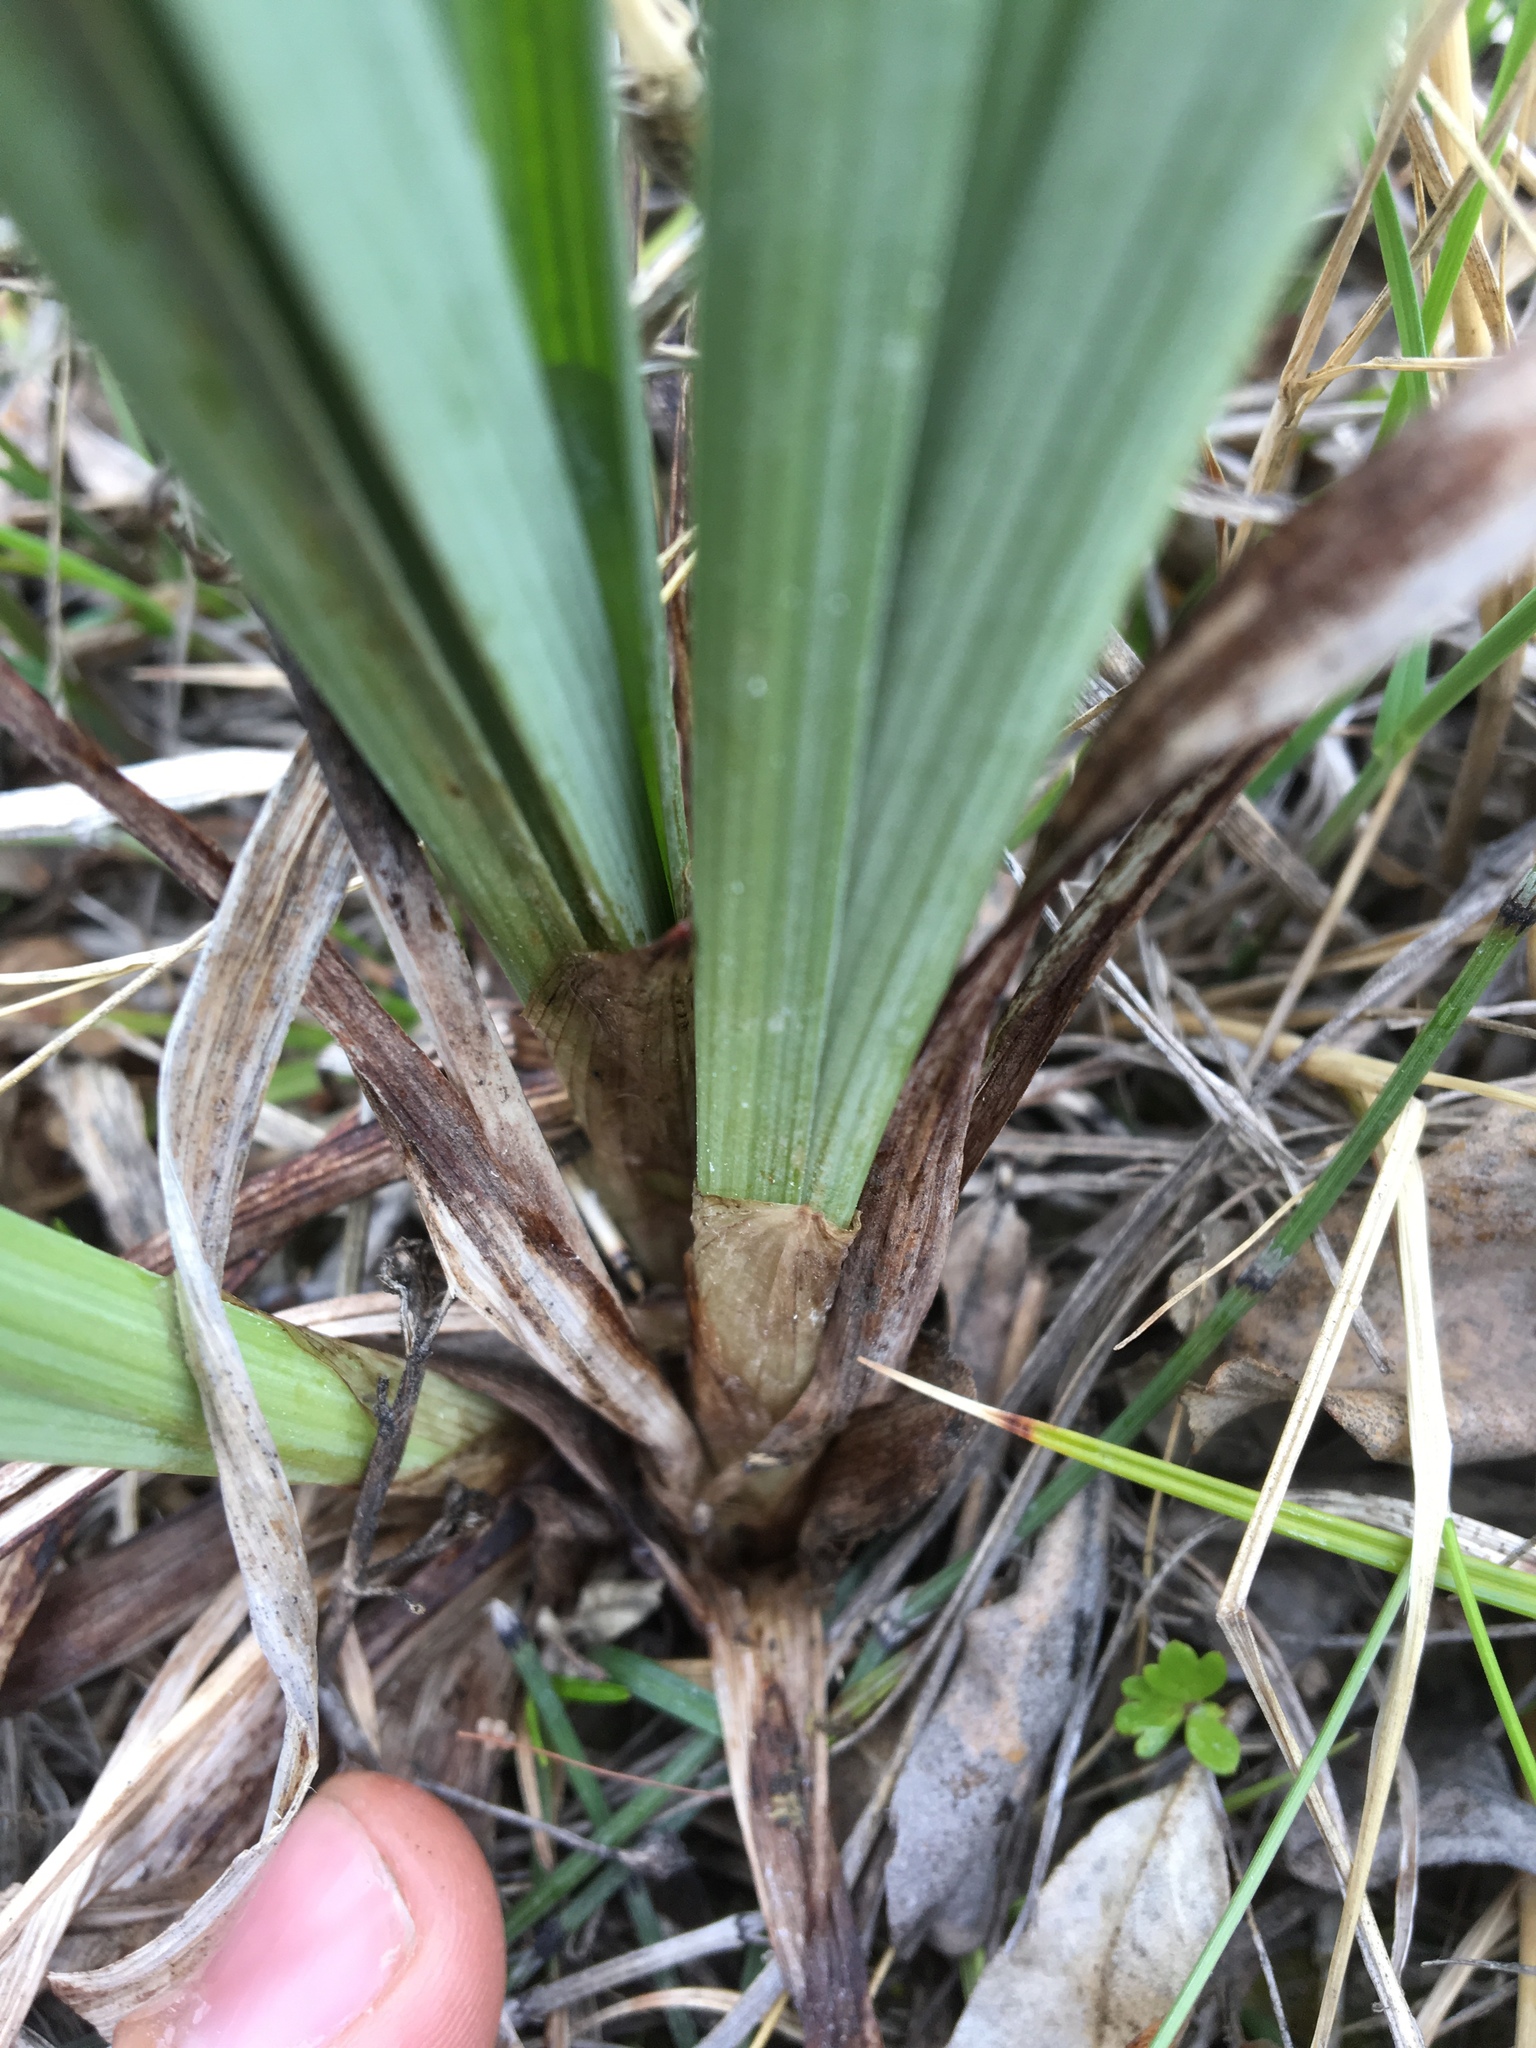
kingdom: Plantae
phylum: Tracheophyta
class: Liliopsida
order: Liliales
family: Melanthiaceae
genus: Anticlea
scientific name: Anticlea elegans
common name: Mountain death camas
